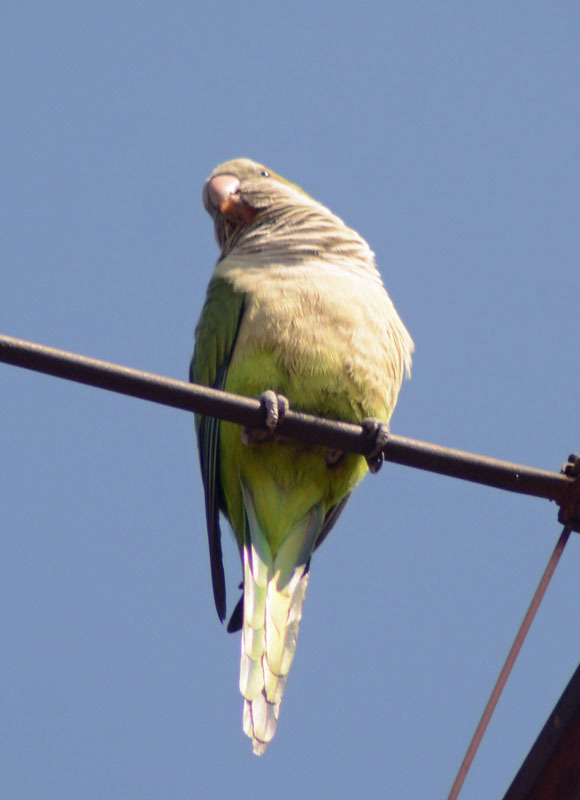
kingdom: Animalia
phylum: Chordata
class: Aves
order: Psittaciformes
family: Psittacidae
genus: Myiopsitta
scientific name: Myiopsitta monachus
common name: Monk parakeet
